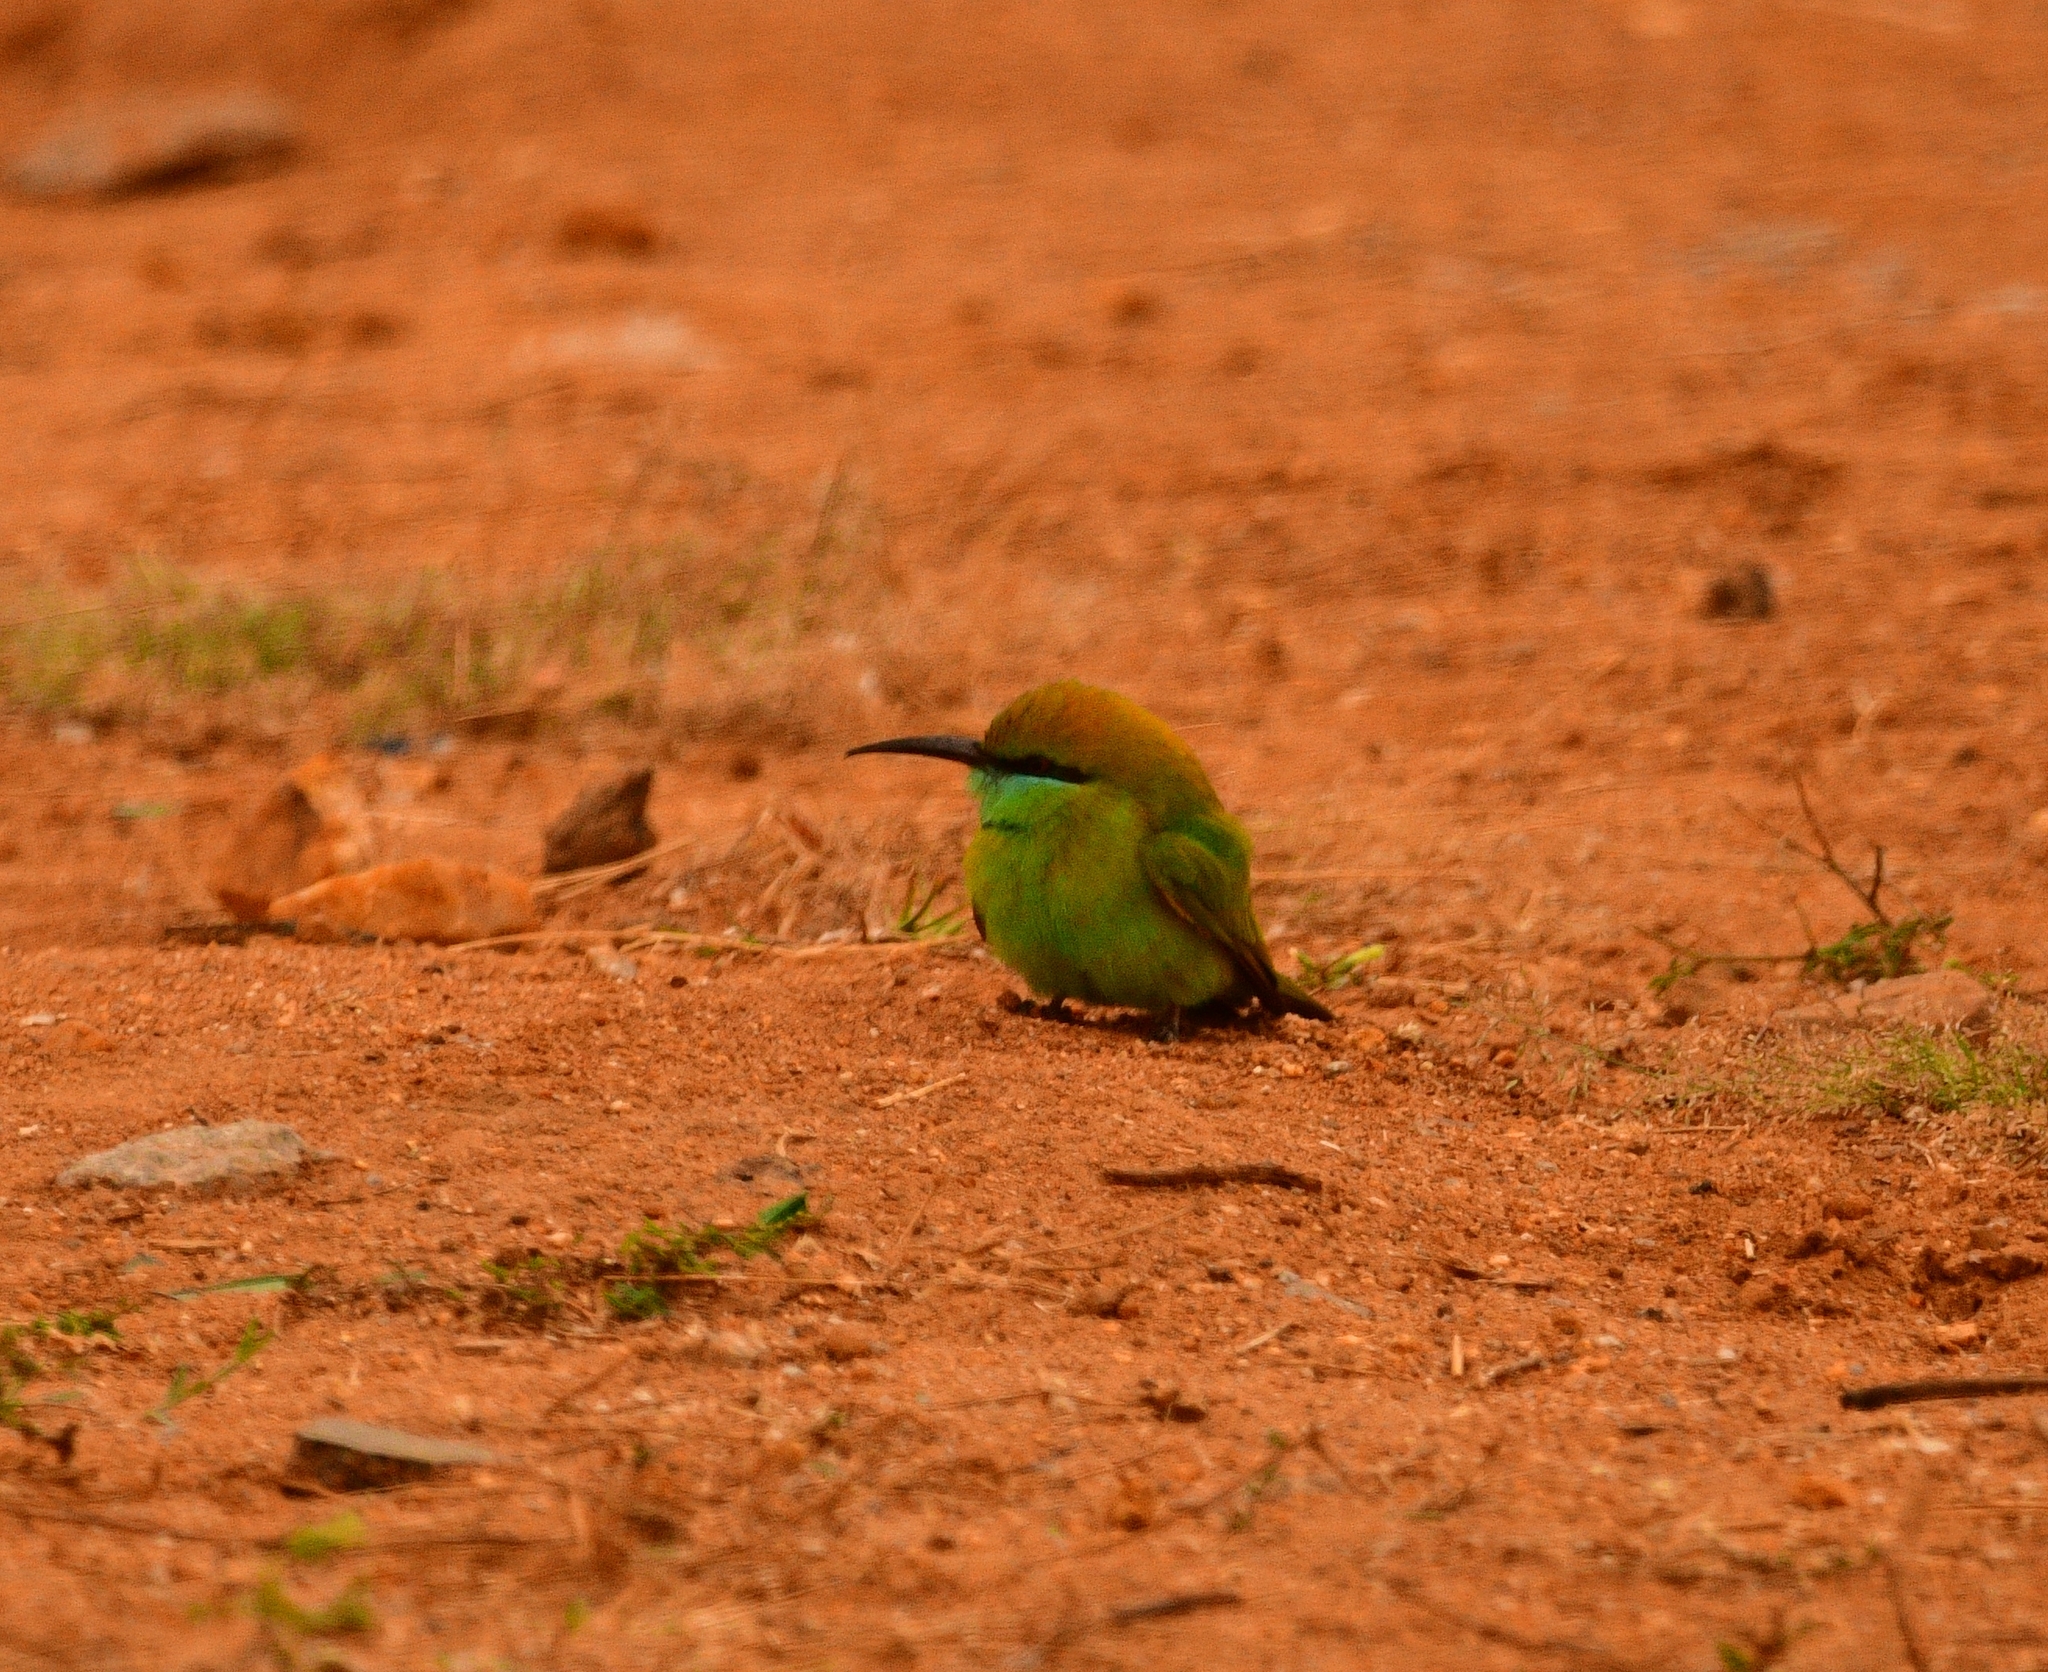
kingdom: Animalia
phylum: Chordata
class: Aves
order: Coraciiformes
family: Meropidae
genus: Merops
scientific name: Merops orientalis
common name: Green bee-eater
